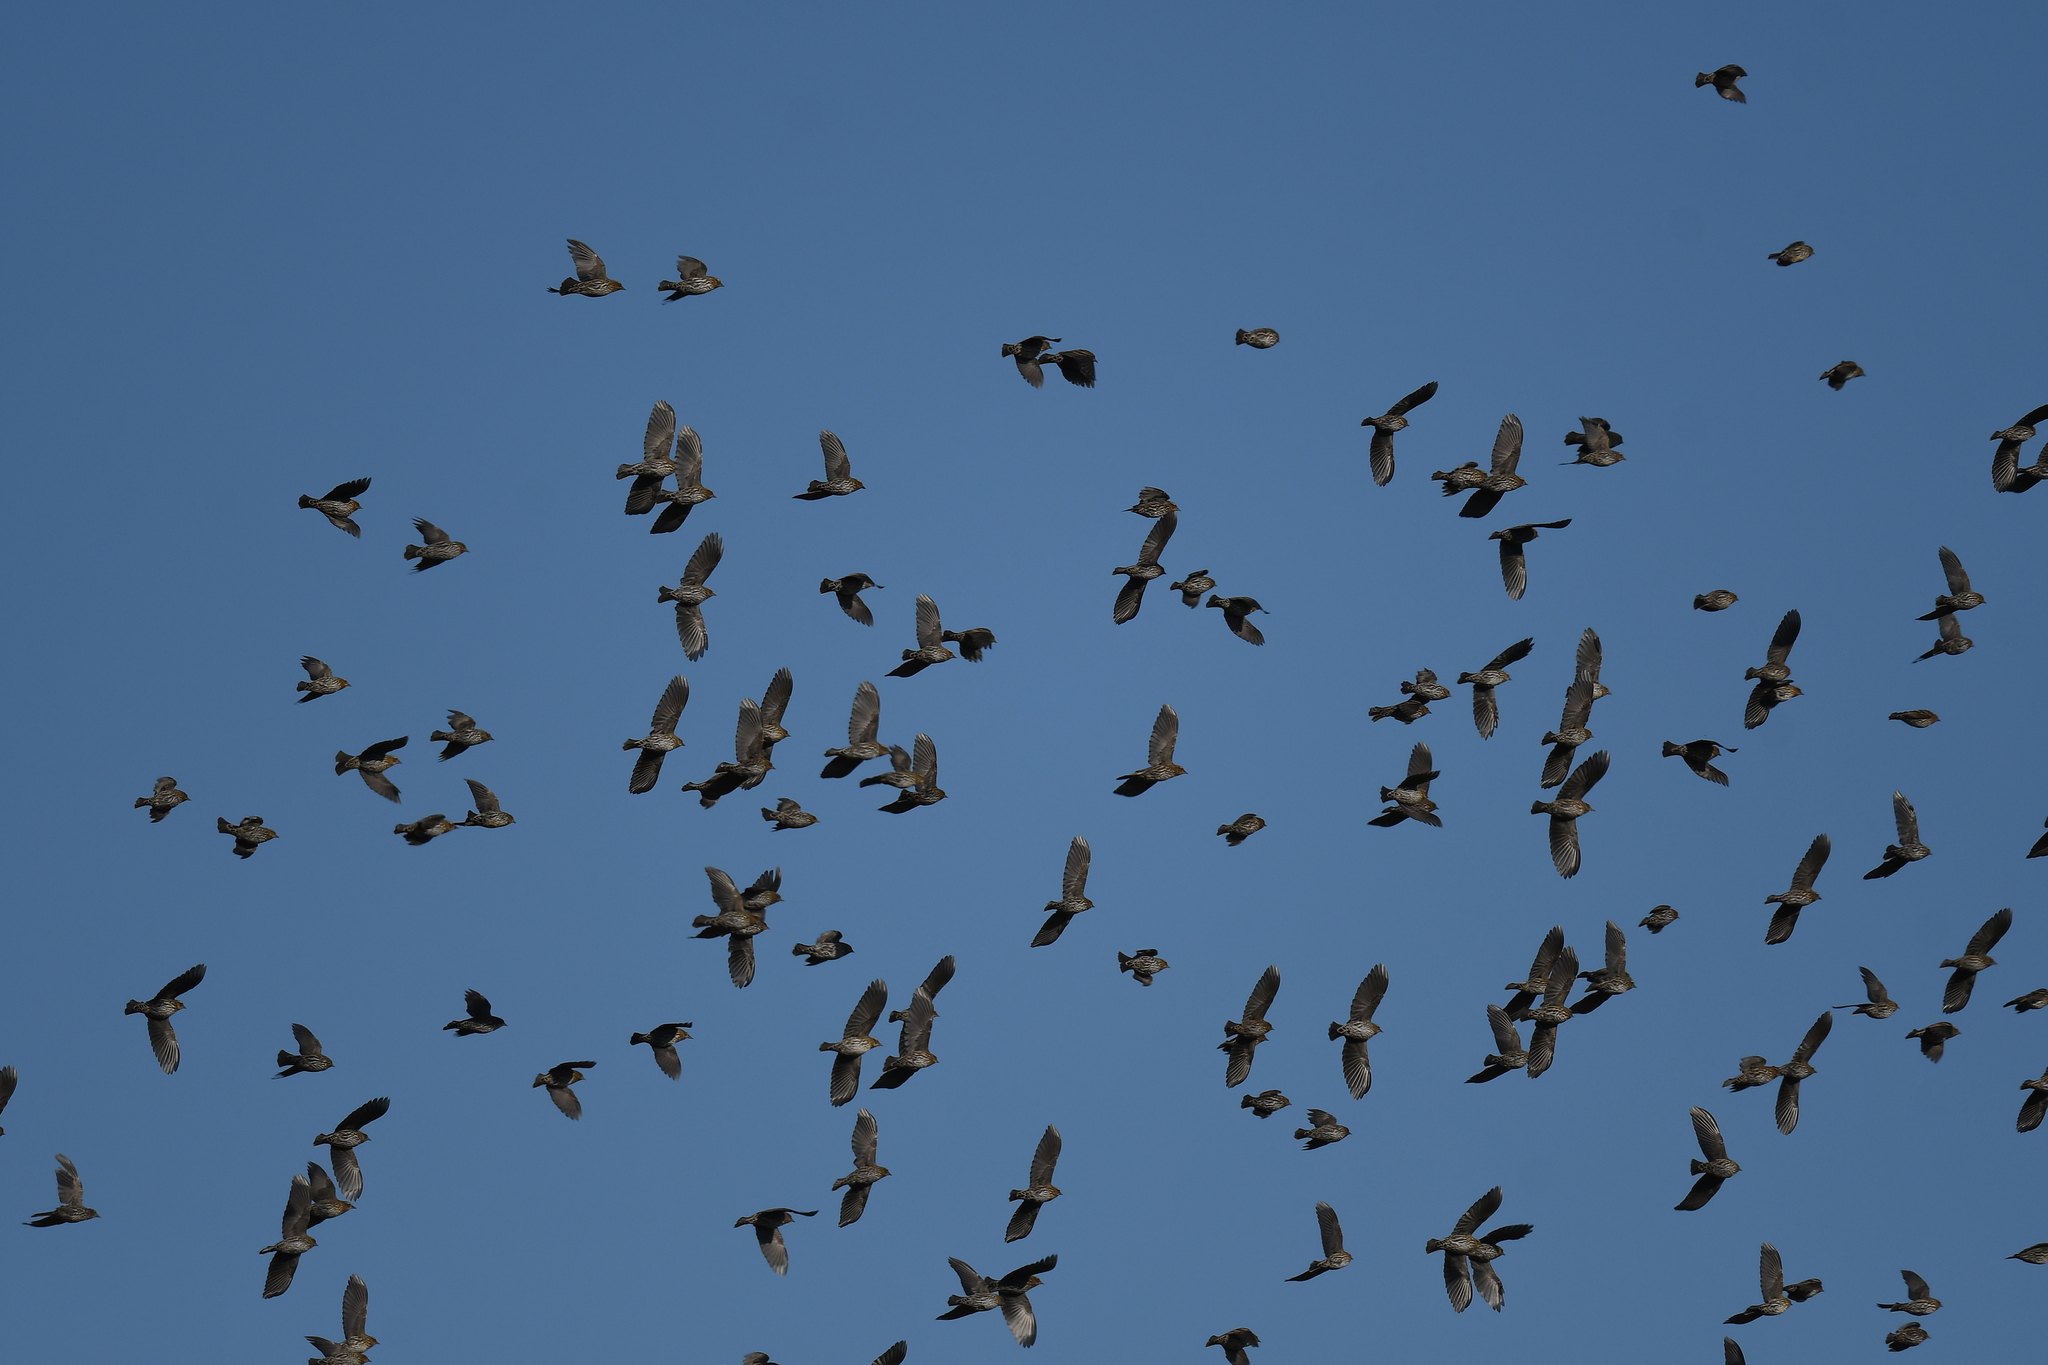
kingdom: Animalia
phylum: Chordata
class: Aves
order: Passeriformes
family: Icteridae
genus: Agelaius
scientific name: Agelaius phoeniceus
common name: Red-winged blackbird
